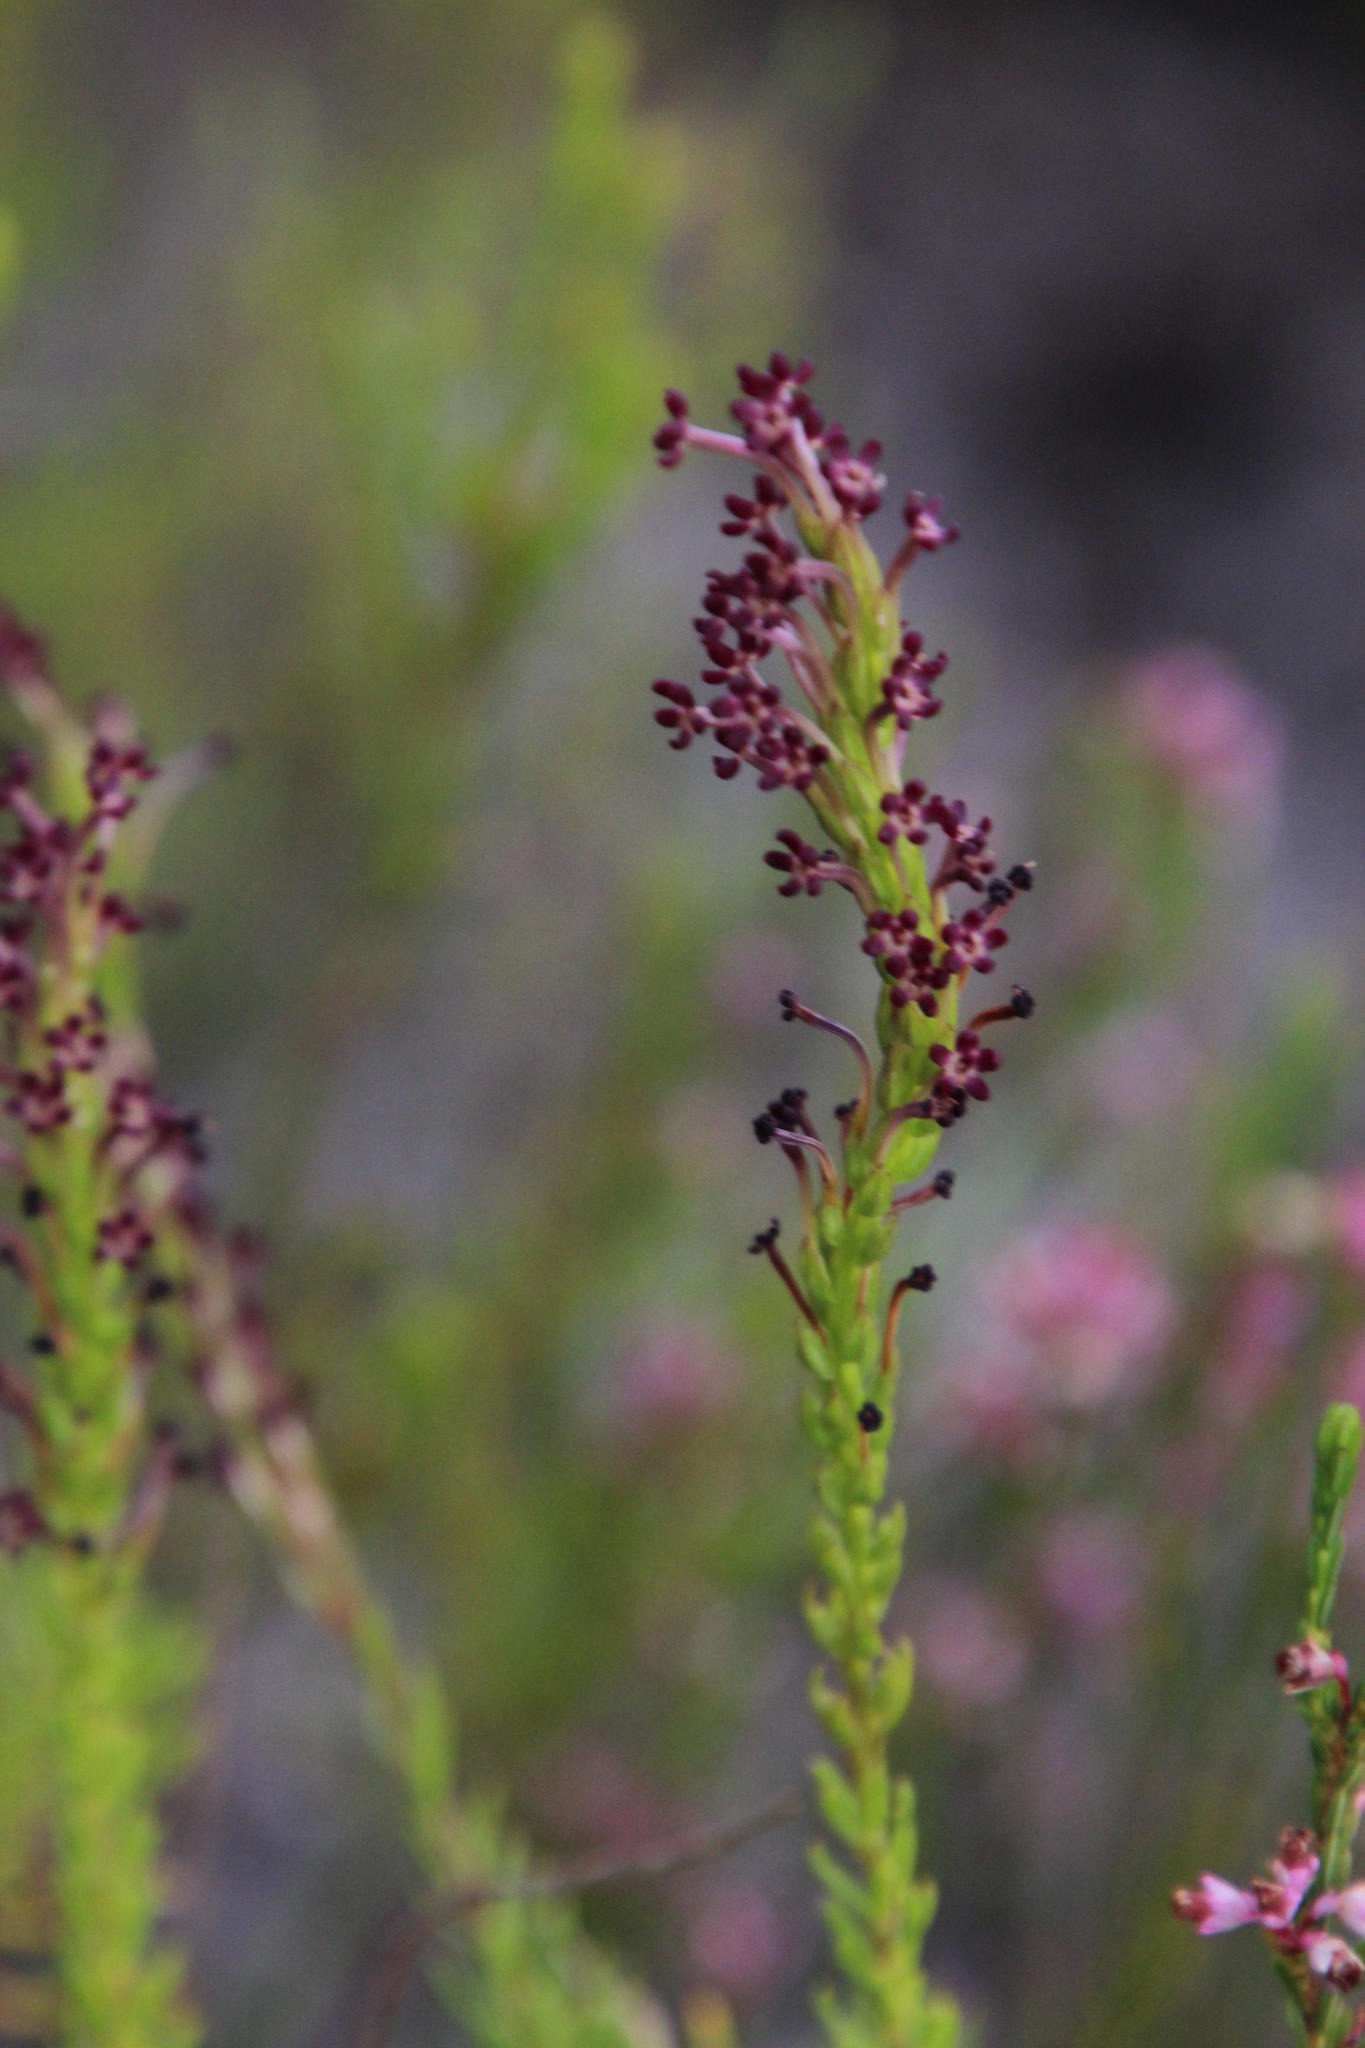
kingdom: Plantae
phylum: Tracheophyta
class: Magnoliopsida
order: Lamiales
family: Scrophulariaceae
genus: Microdon
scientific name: Microdon dubius
